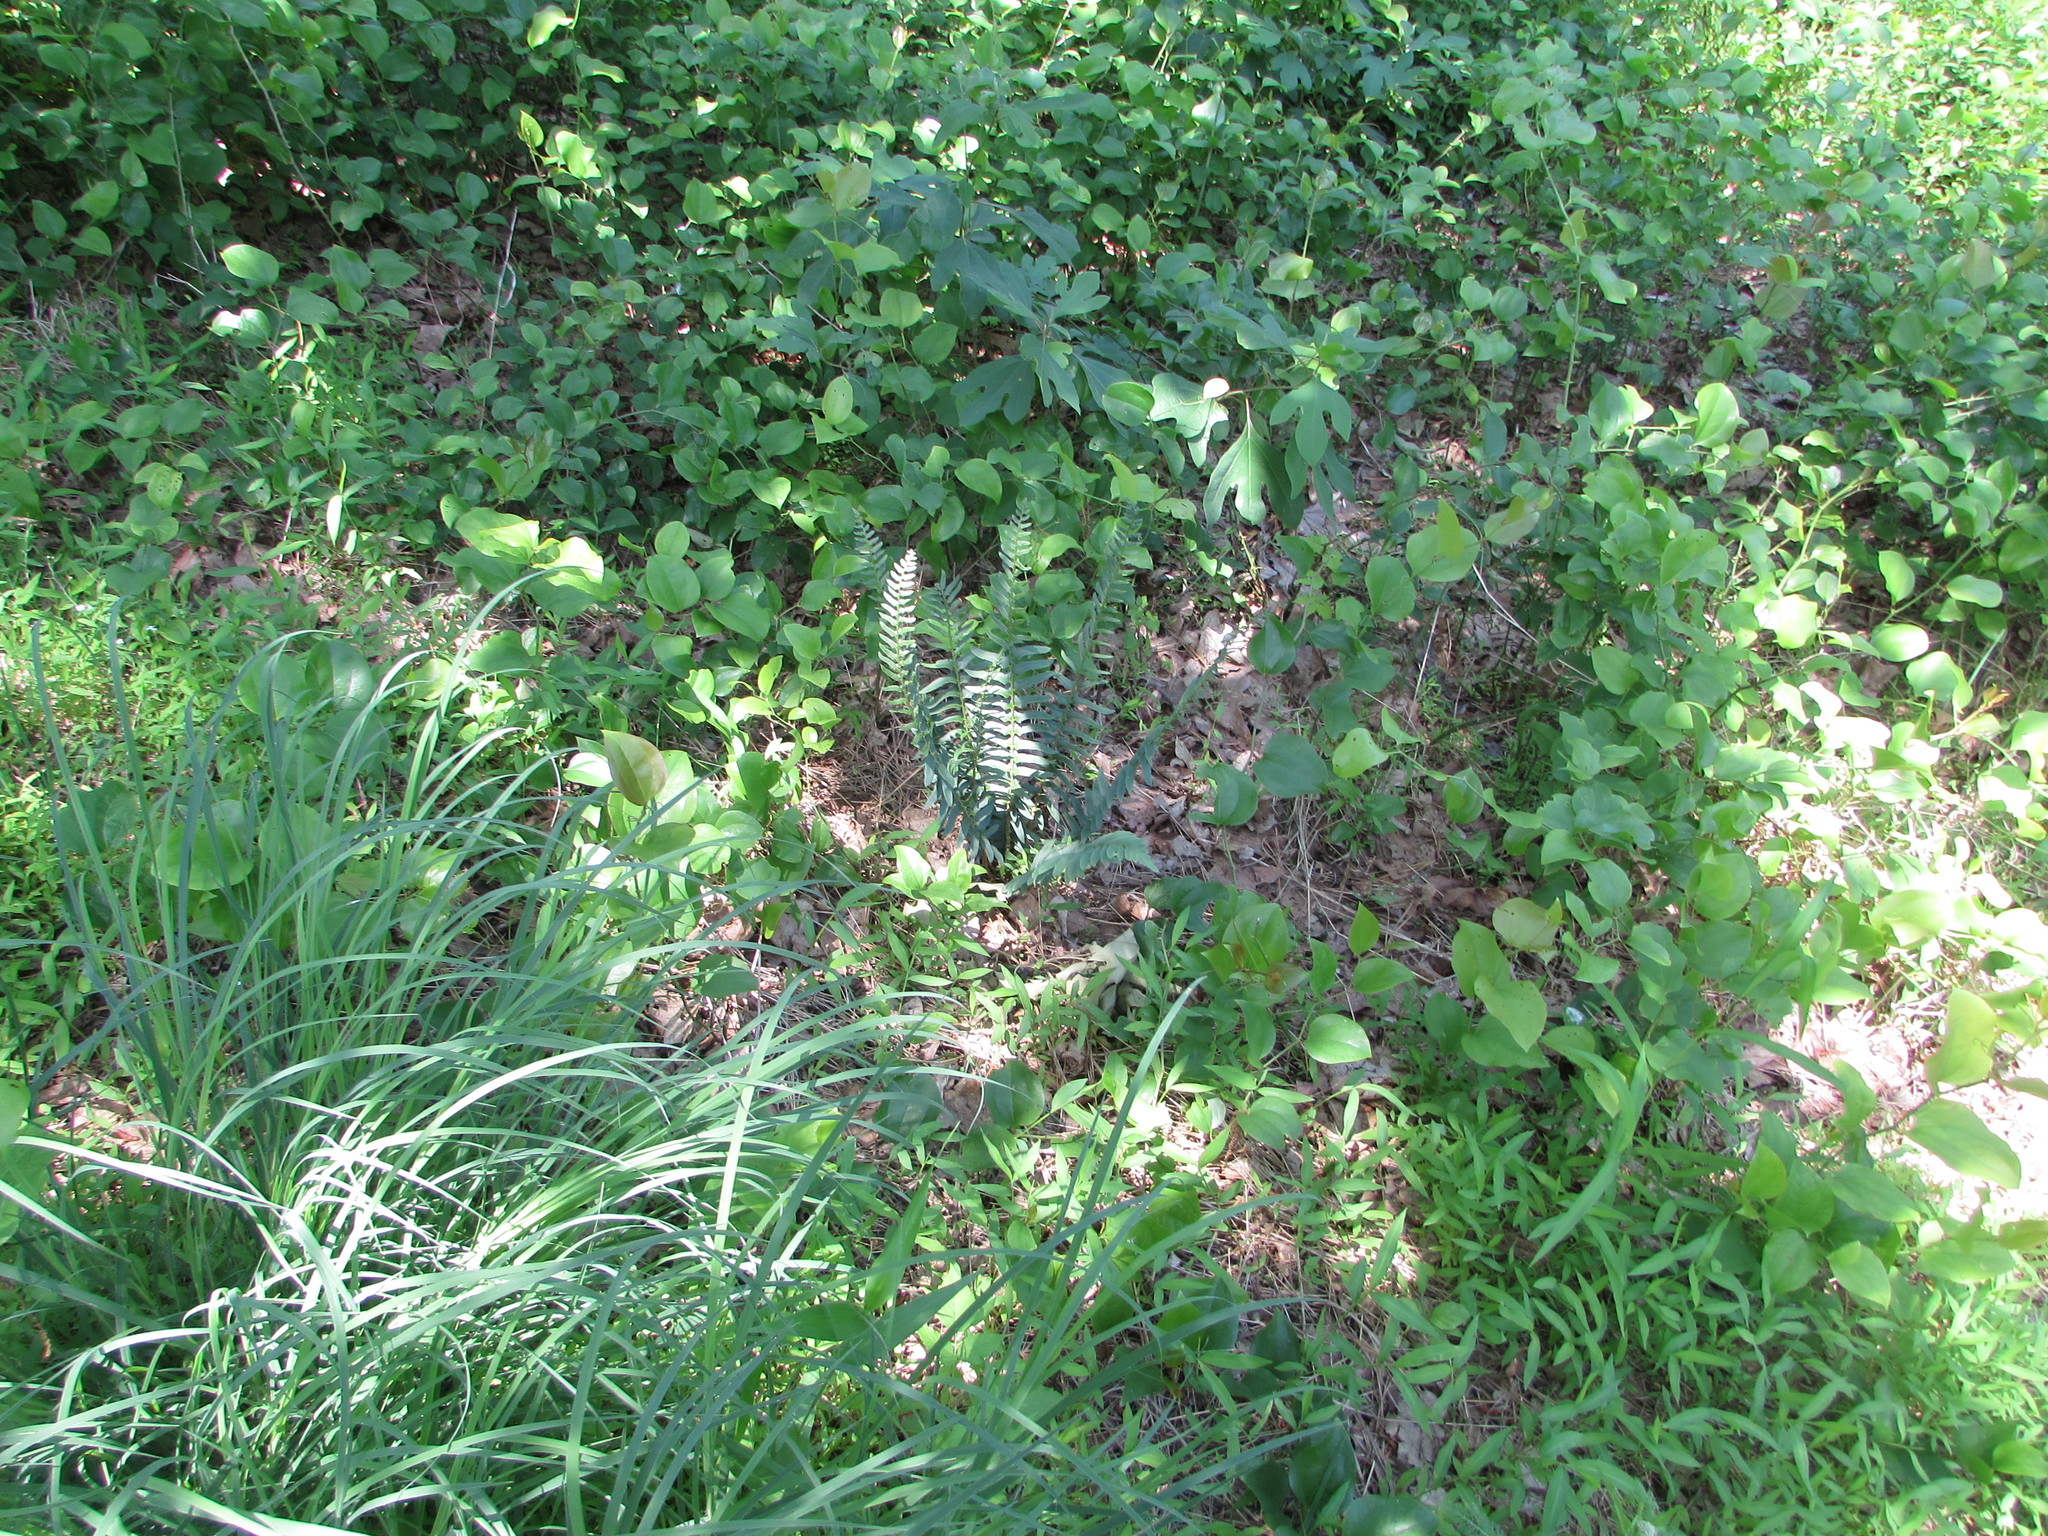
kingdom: Plantae
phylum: Tracheophyta
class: Polypodiopsida
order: Polypodiales
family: Dryopteridaceae
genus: Polystichum
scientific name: Polystichum acrostichoides
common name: Christmas fern
